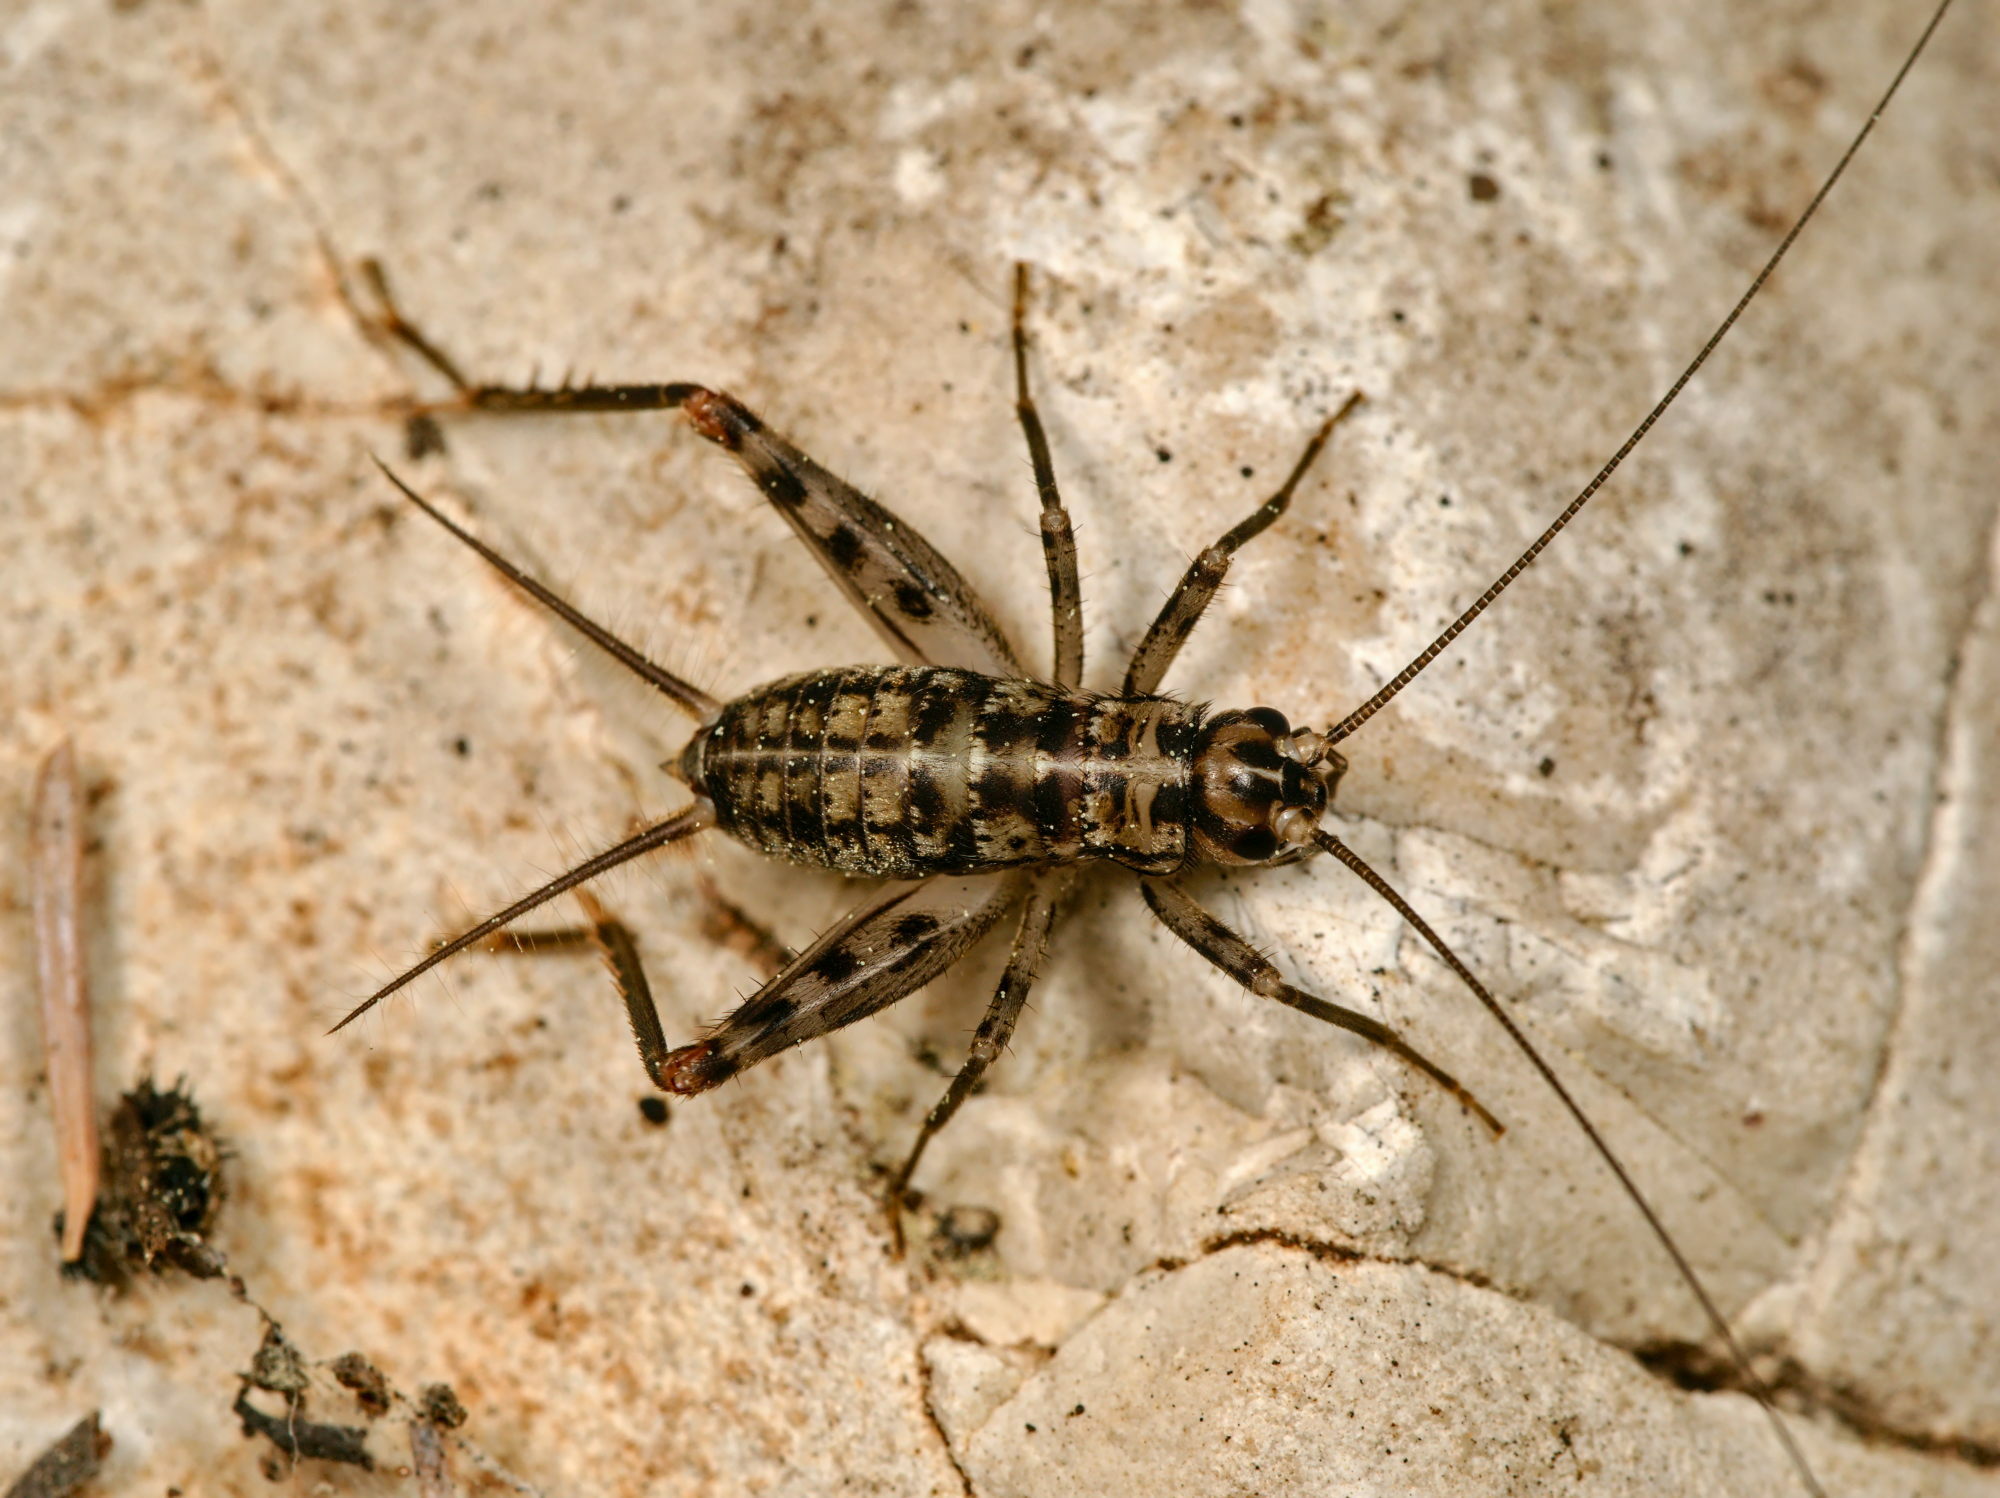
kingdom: Animalia
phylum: Arthropoda
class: Insecta
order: Orthoptera
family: Gryllidae
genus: Gryllomorpha
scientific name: Gryllomorpha dalmatina
